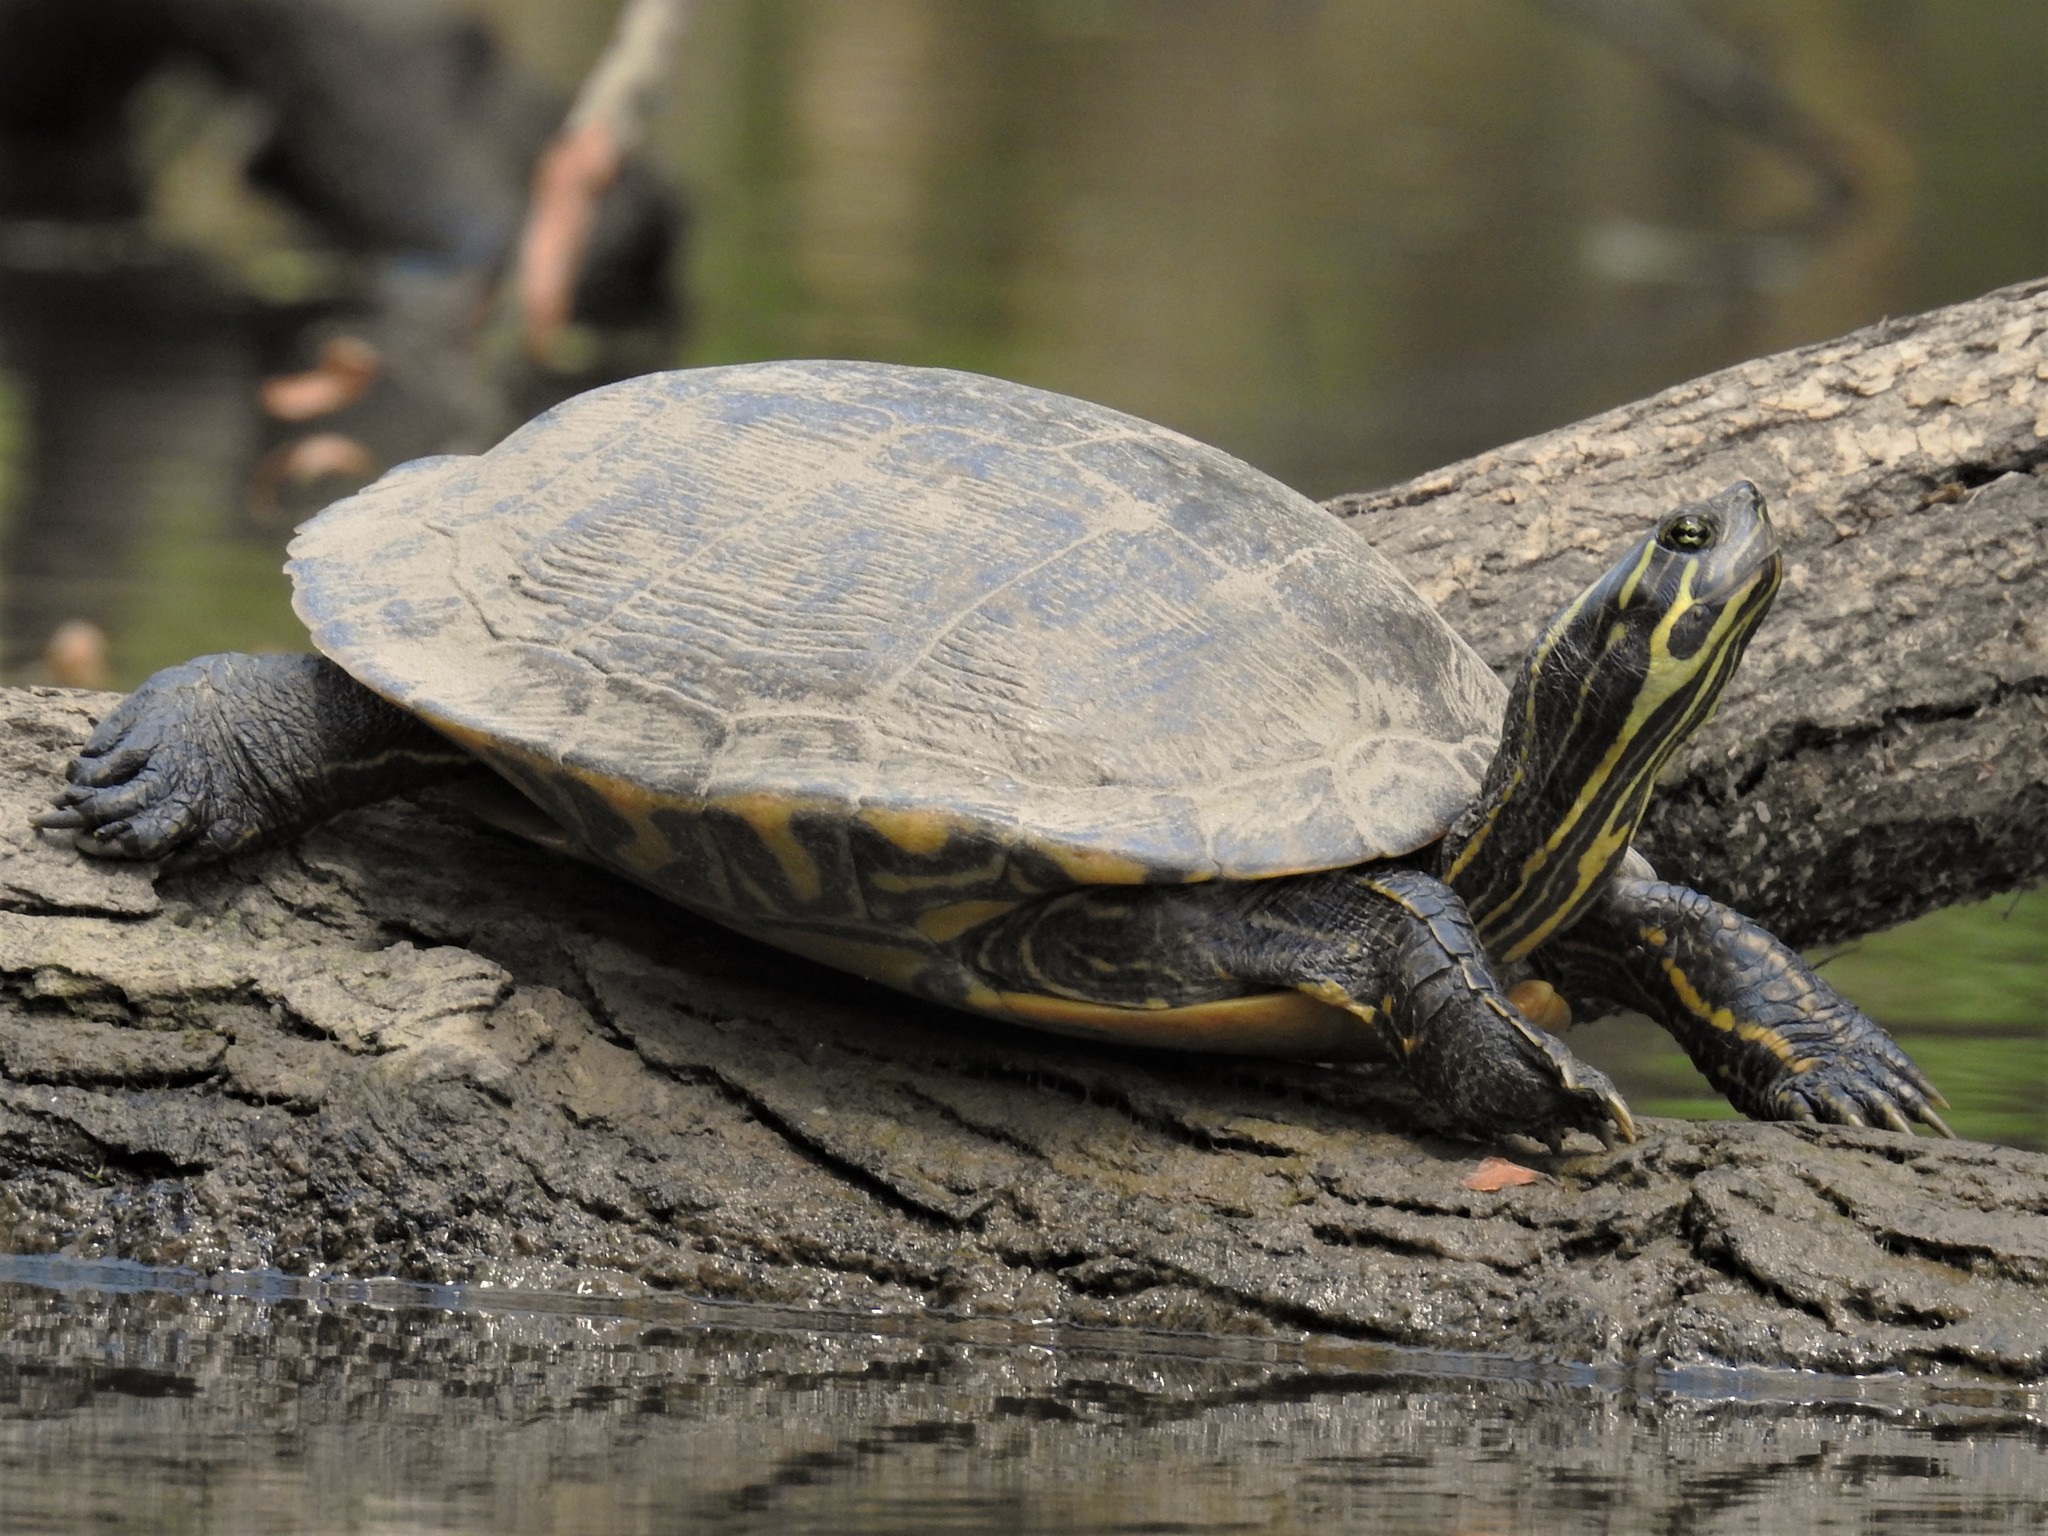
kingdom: Animalia
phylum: Chordata
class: Testudines
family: Emydidae
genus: Pseudemys
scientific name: Pseudemys concinna
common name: Eastern river cooter
